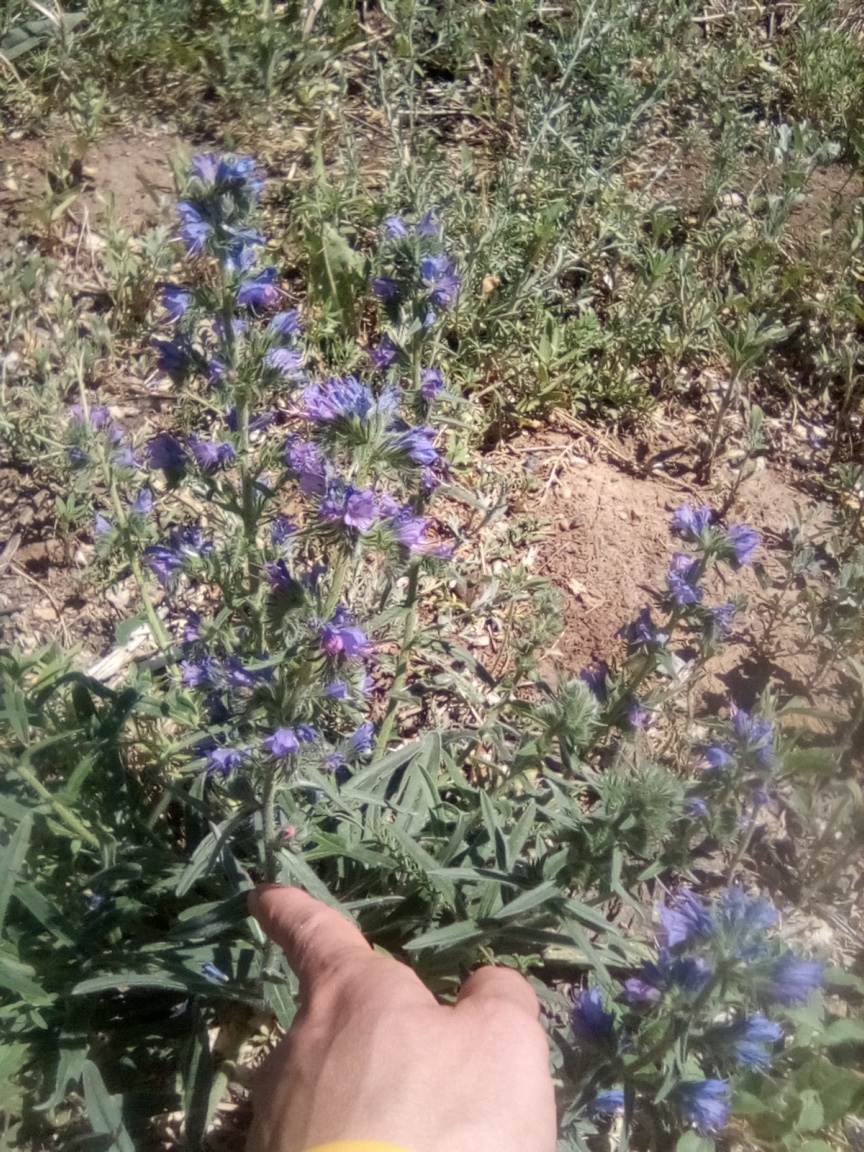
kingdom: Plantae
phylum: Tracheophyta
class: Magnoliopsida
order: Boraginales
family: Boraginaceae
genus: Echium
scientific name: Echium vulgare
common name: Common viper's bugloss
